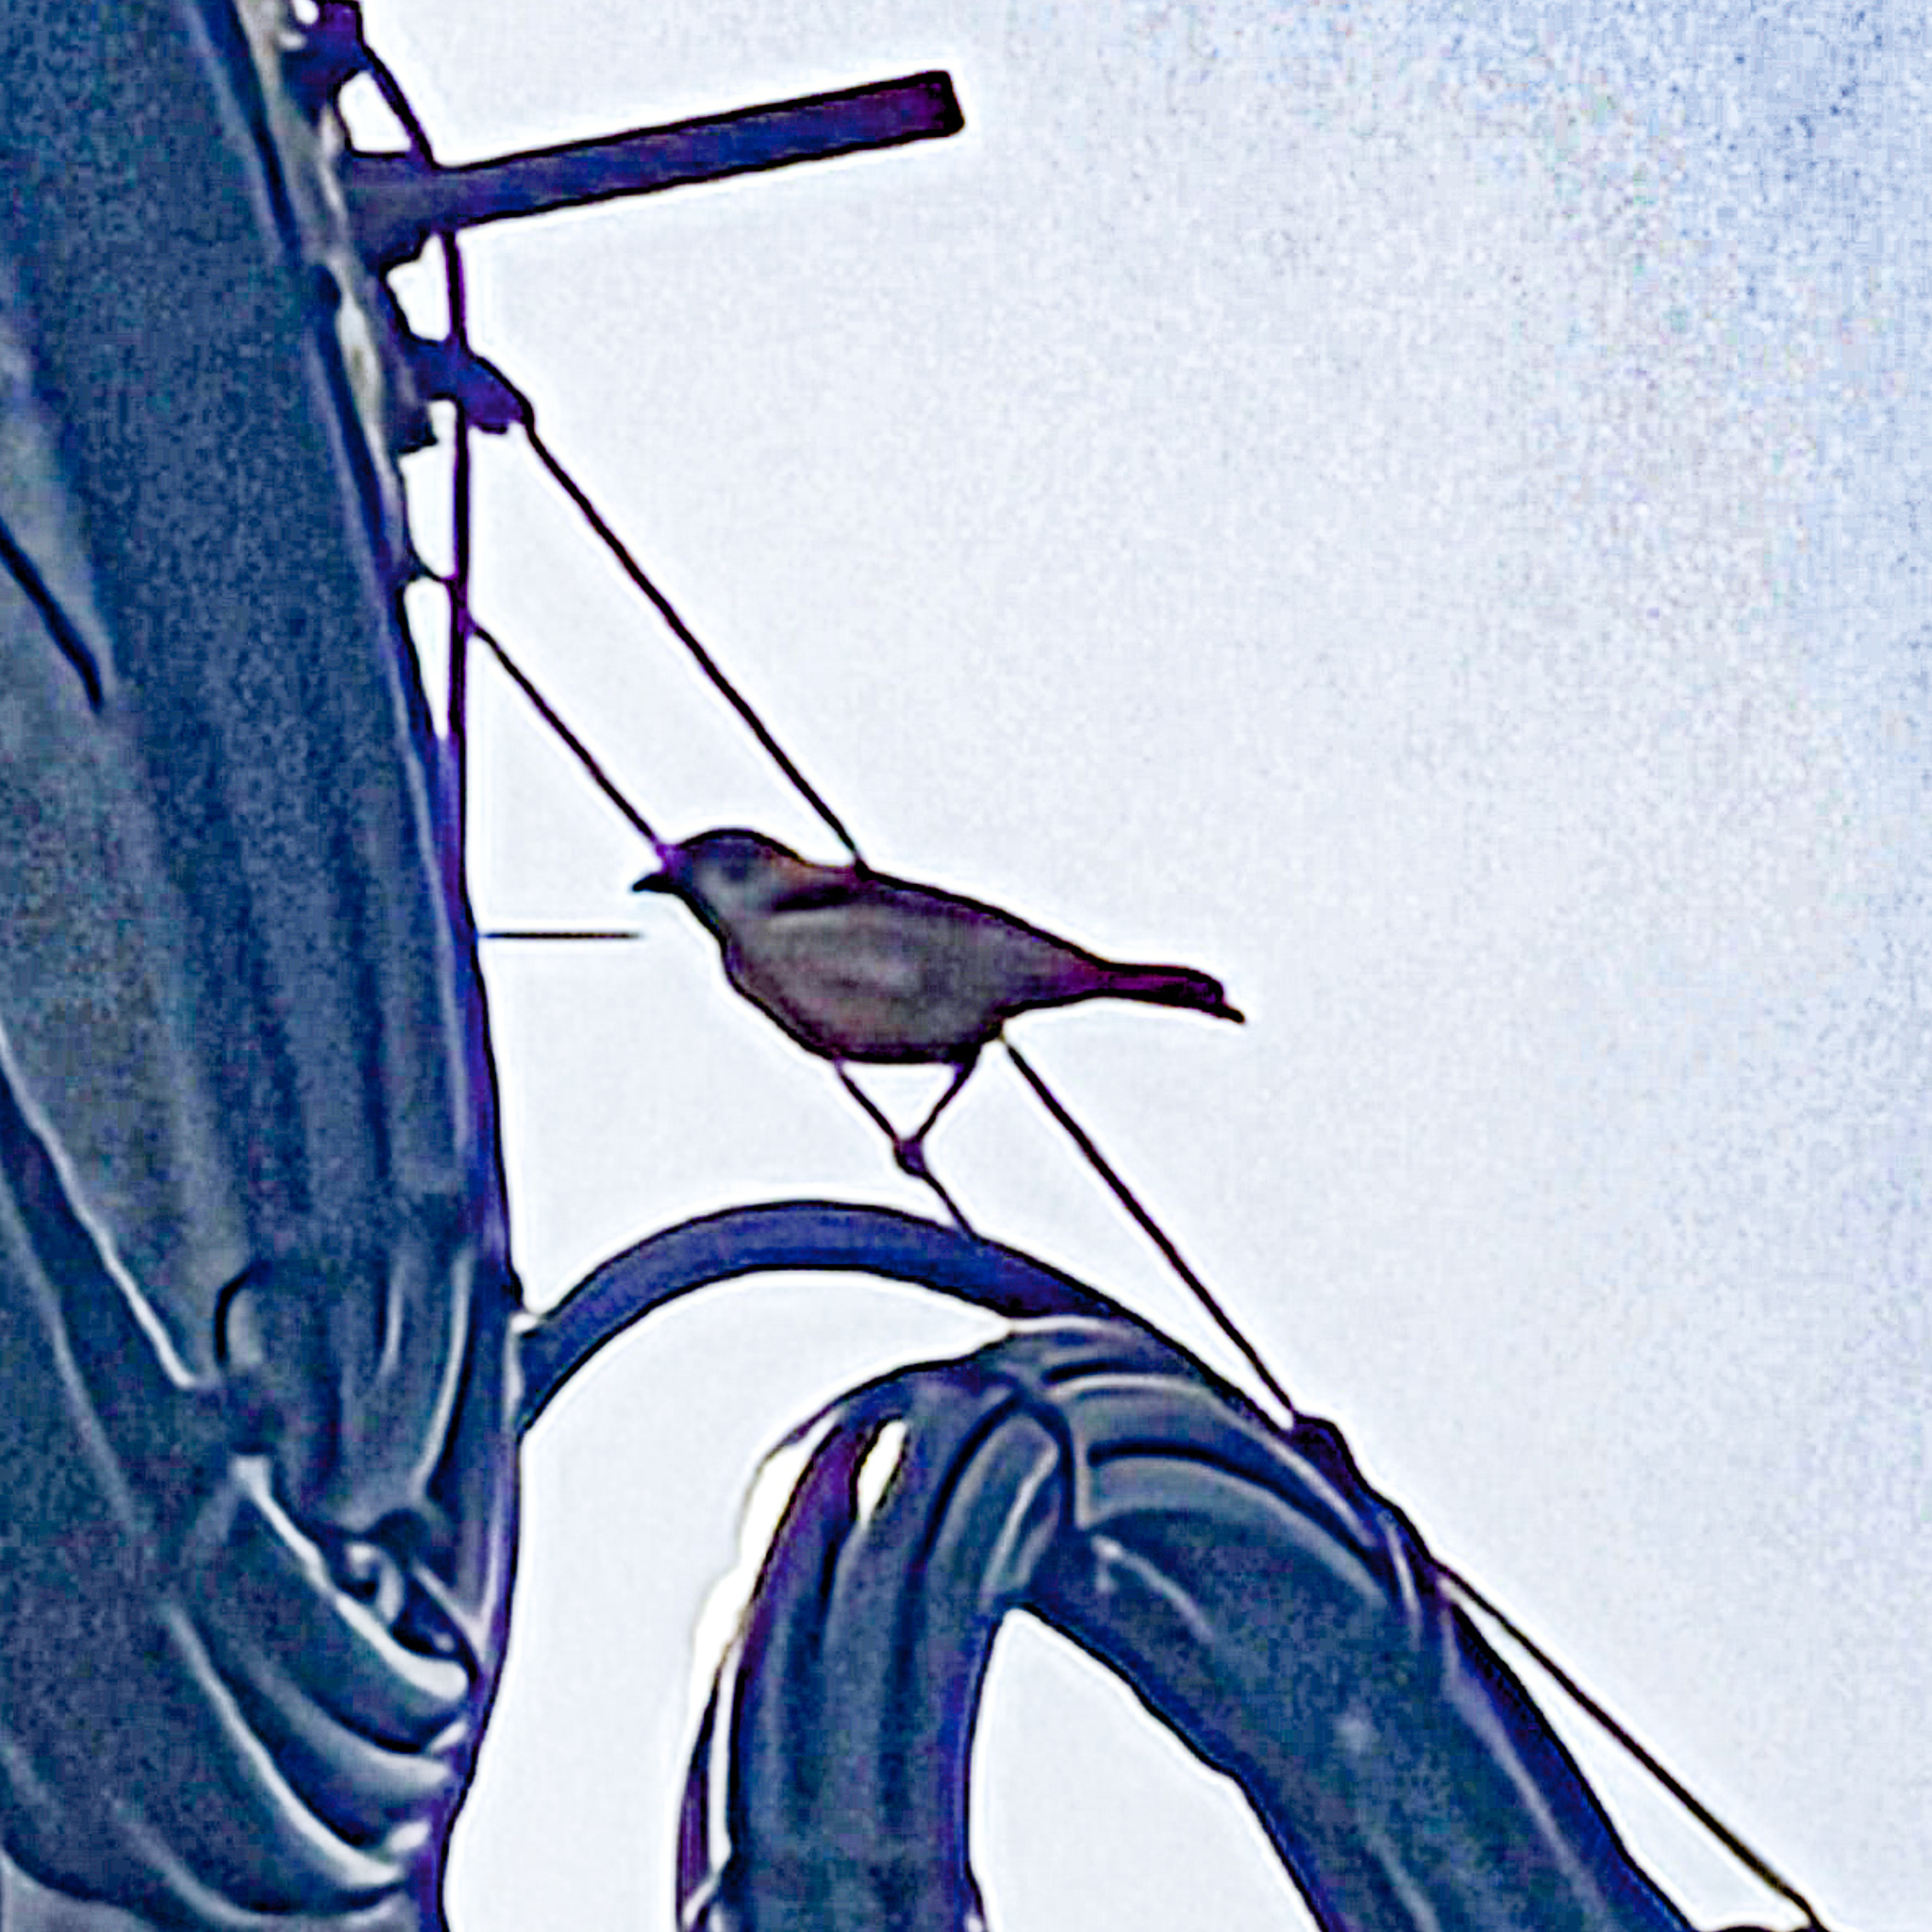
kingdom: Animalia
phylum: Chordata
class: Aves
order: Passeriformes
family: Passeridae
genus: Passer
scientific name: Passer montanus
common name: Eurasian tree sparrow
